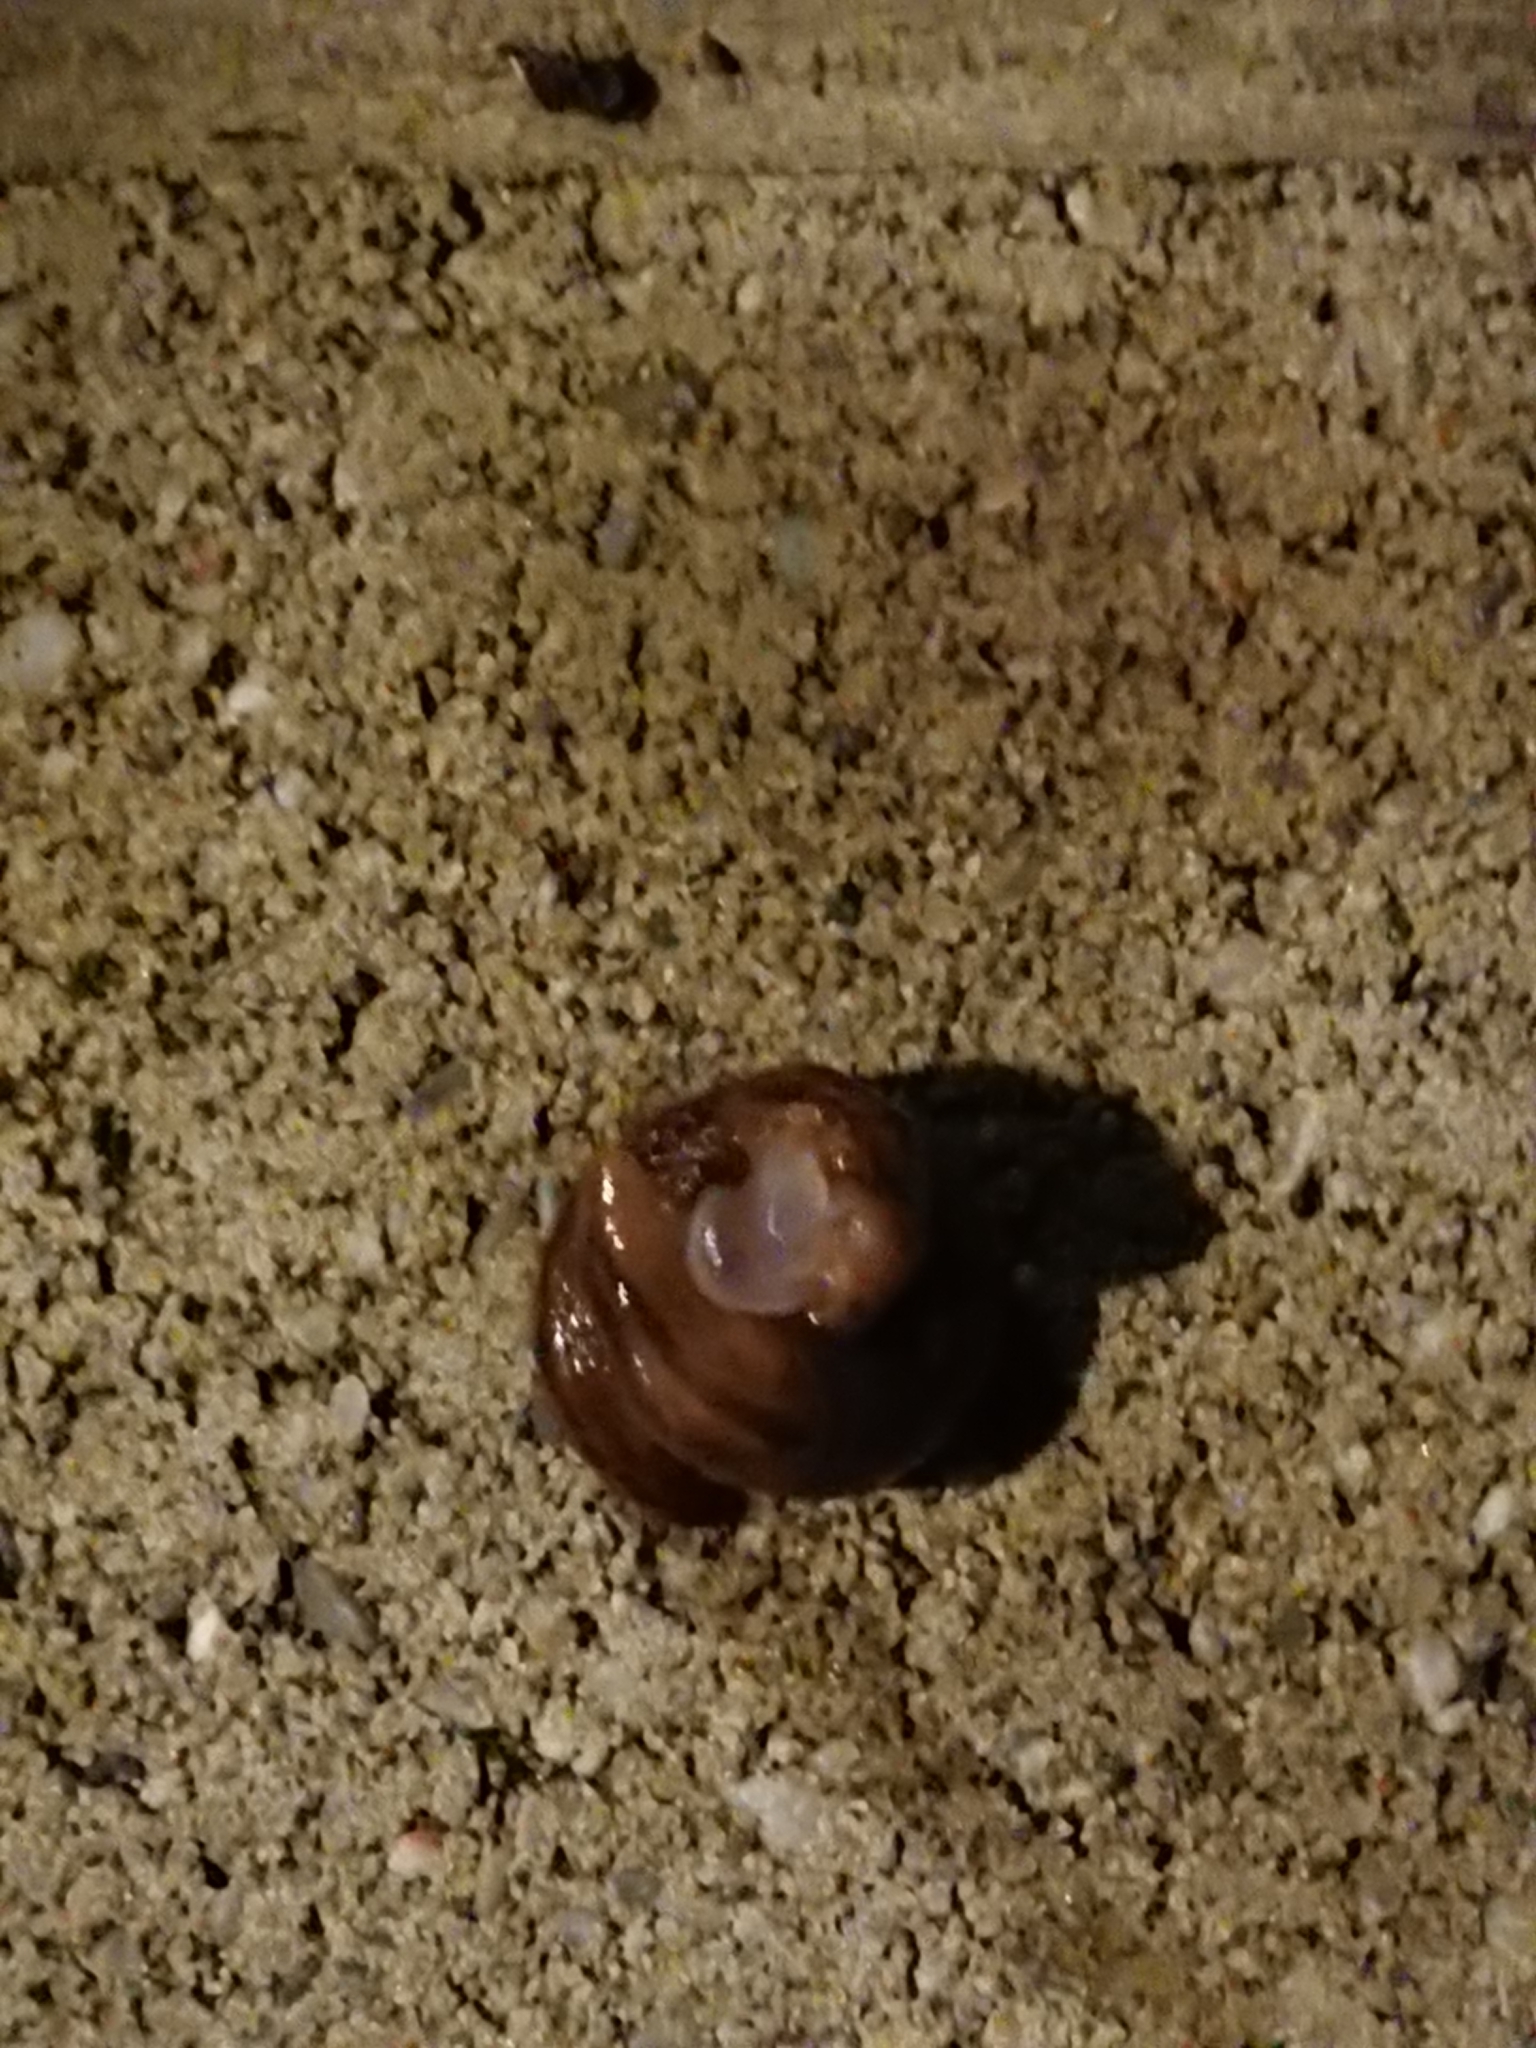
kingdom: Animalia
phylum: Mollusca
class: Gastropoda
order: Stylommatophora
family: Limacidae
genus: Ambigolimax
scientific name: Ambigolimax
